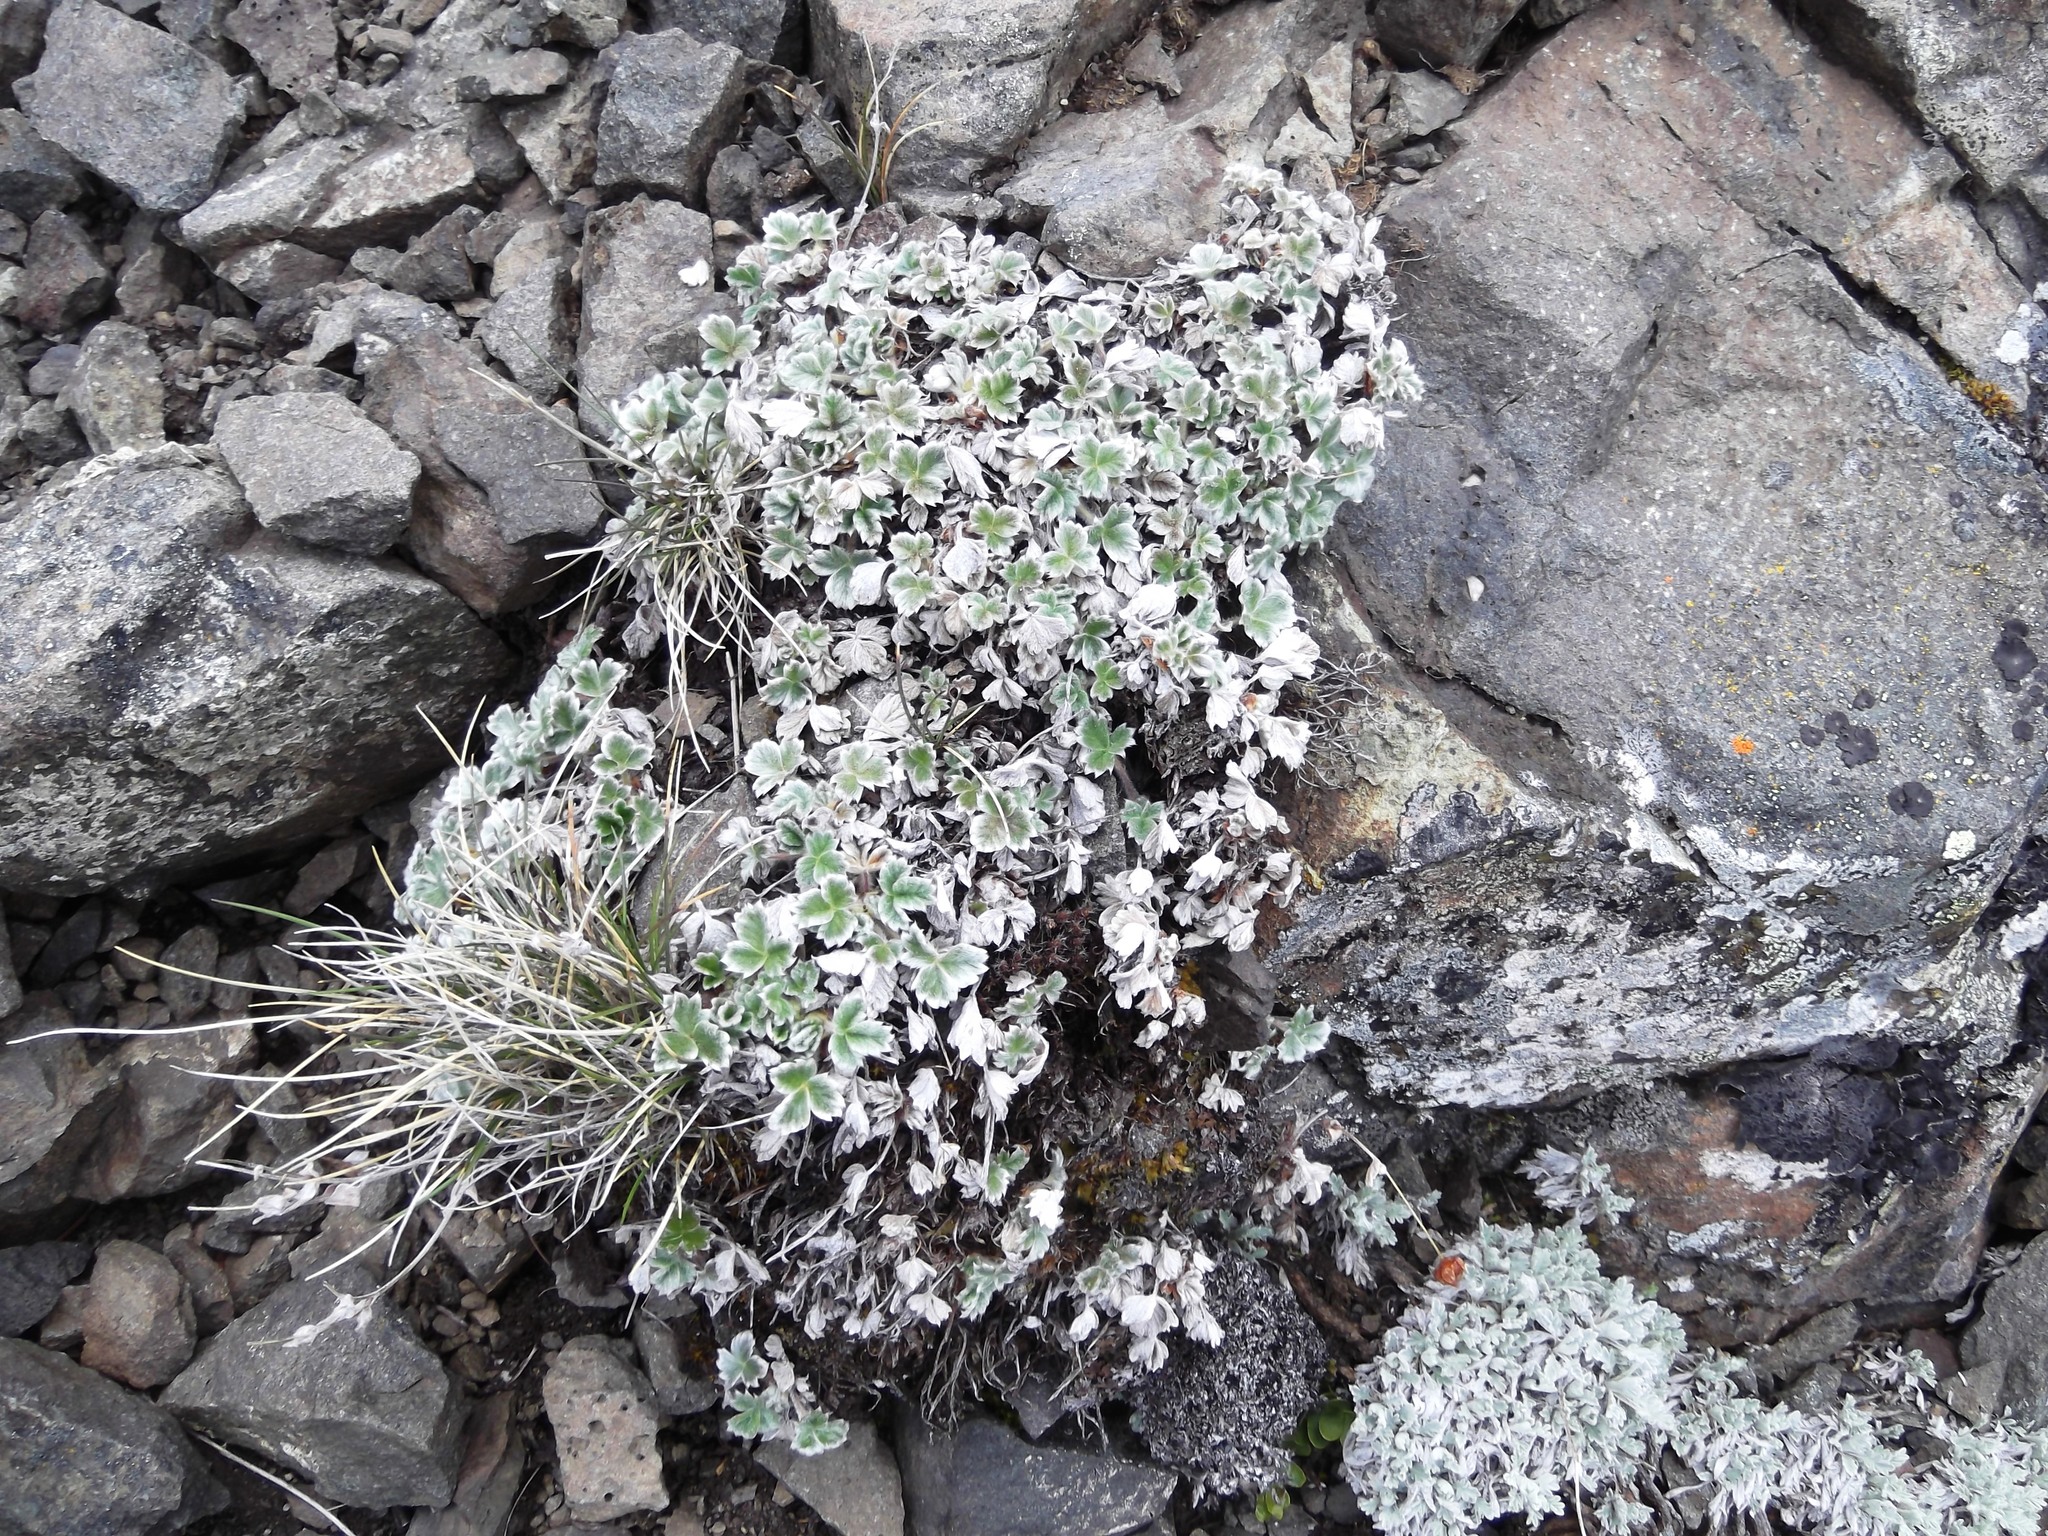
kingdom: Plantae
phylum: Tracheophyta
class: Magnoliopsida
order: Rosales
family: Rosaceae
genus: Potentilla
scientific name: Potentilla villosa
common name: Northern cinquefoil
